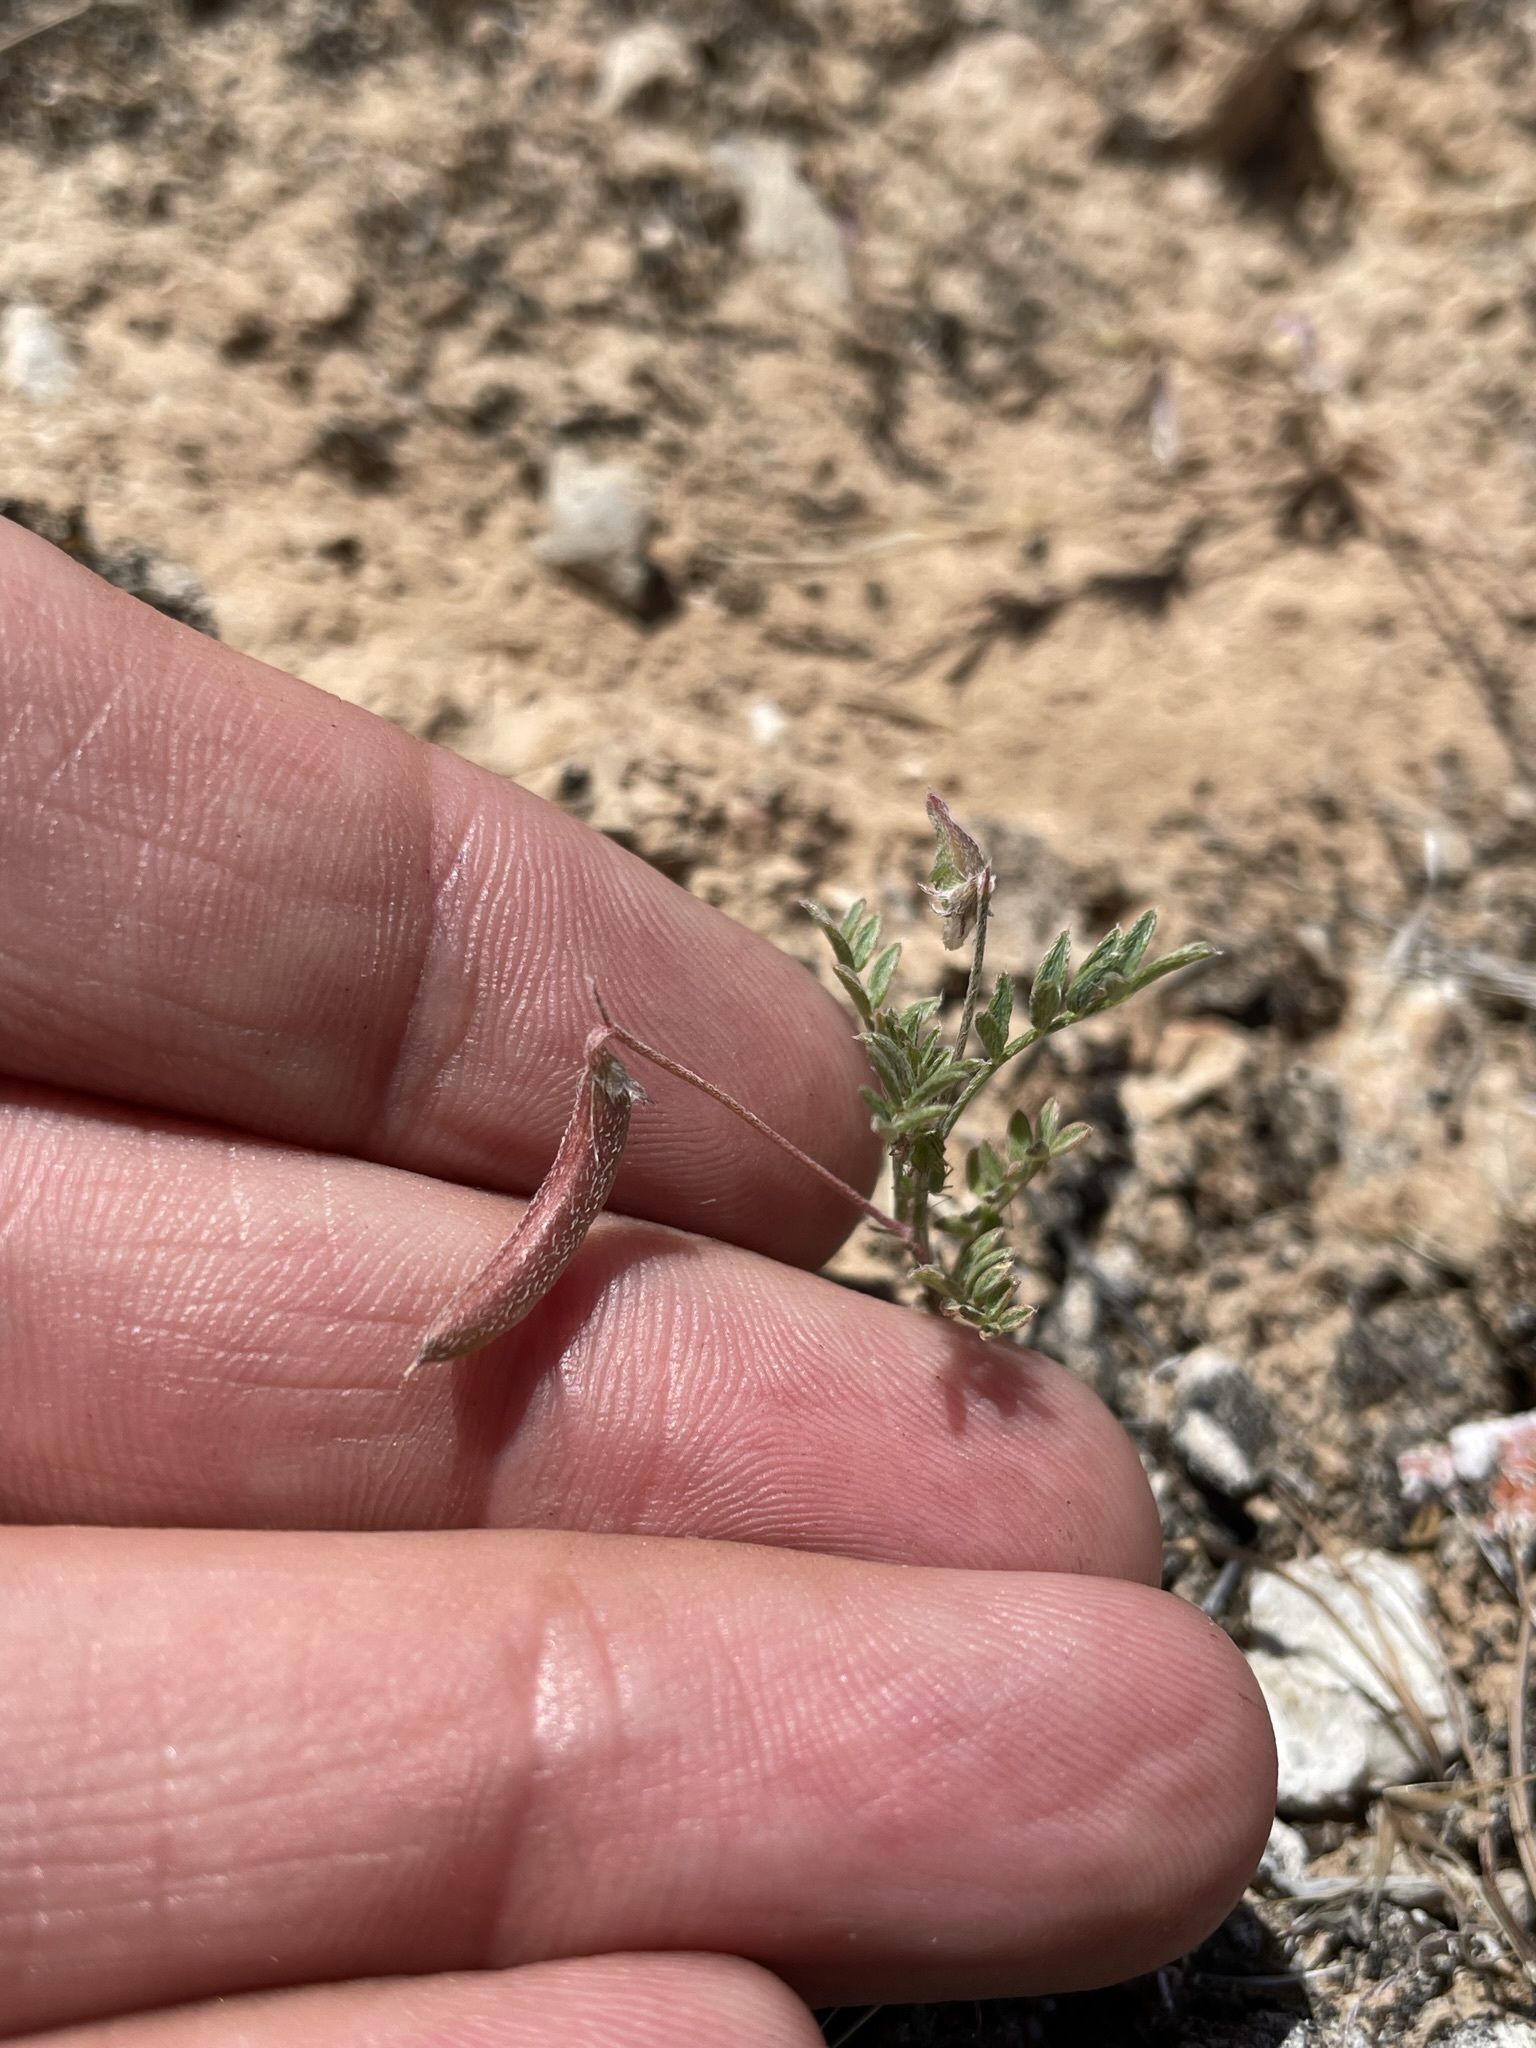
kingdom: Plantae
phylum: Tracheophyta
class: Magnoliopsida
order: Fabales
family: Fabaceae
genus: Astragalus
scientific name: Astragalus nuttallianus
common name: Smallflowered milkvetch
